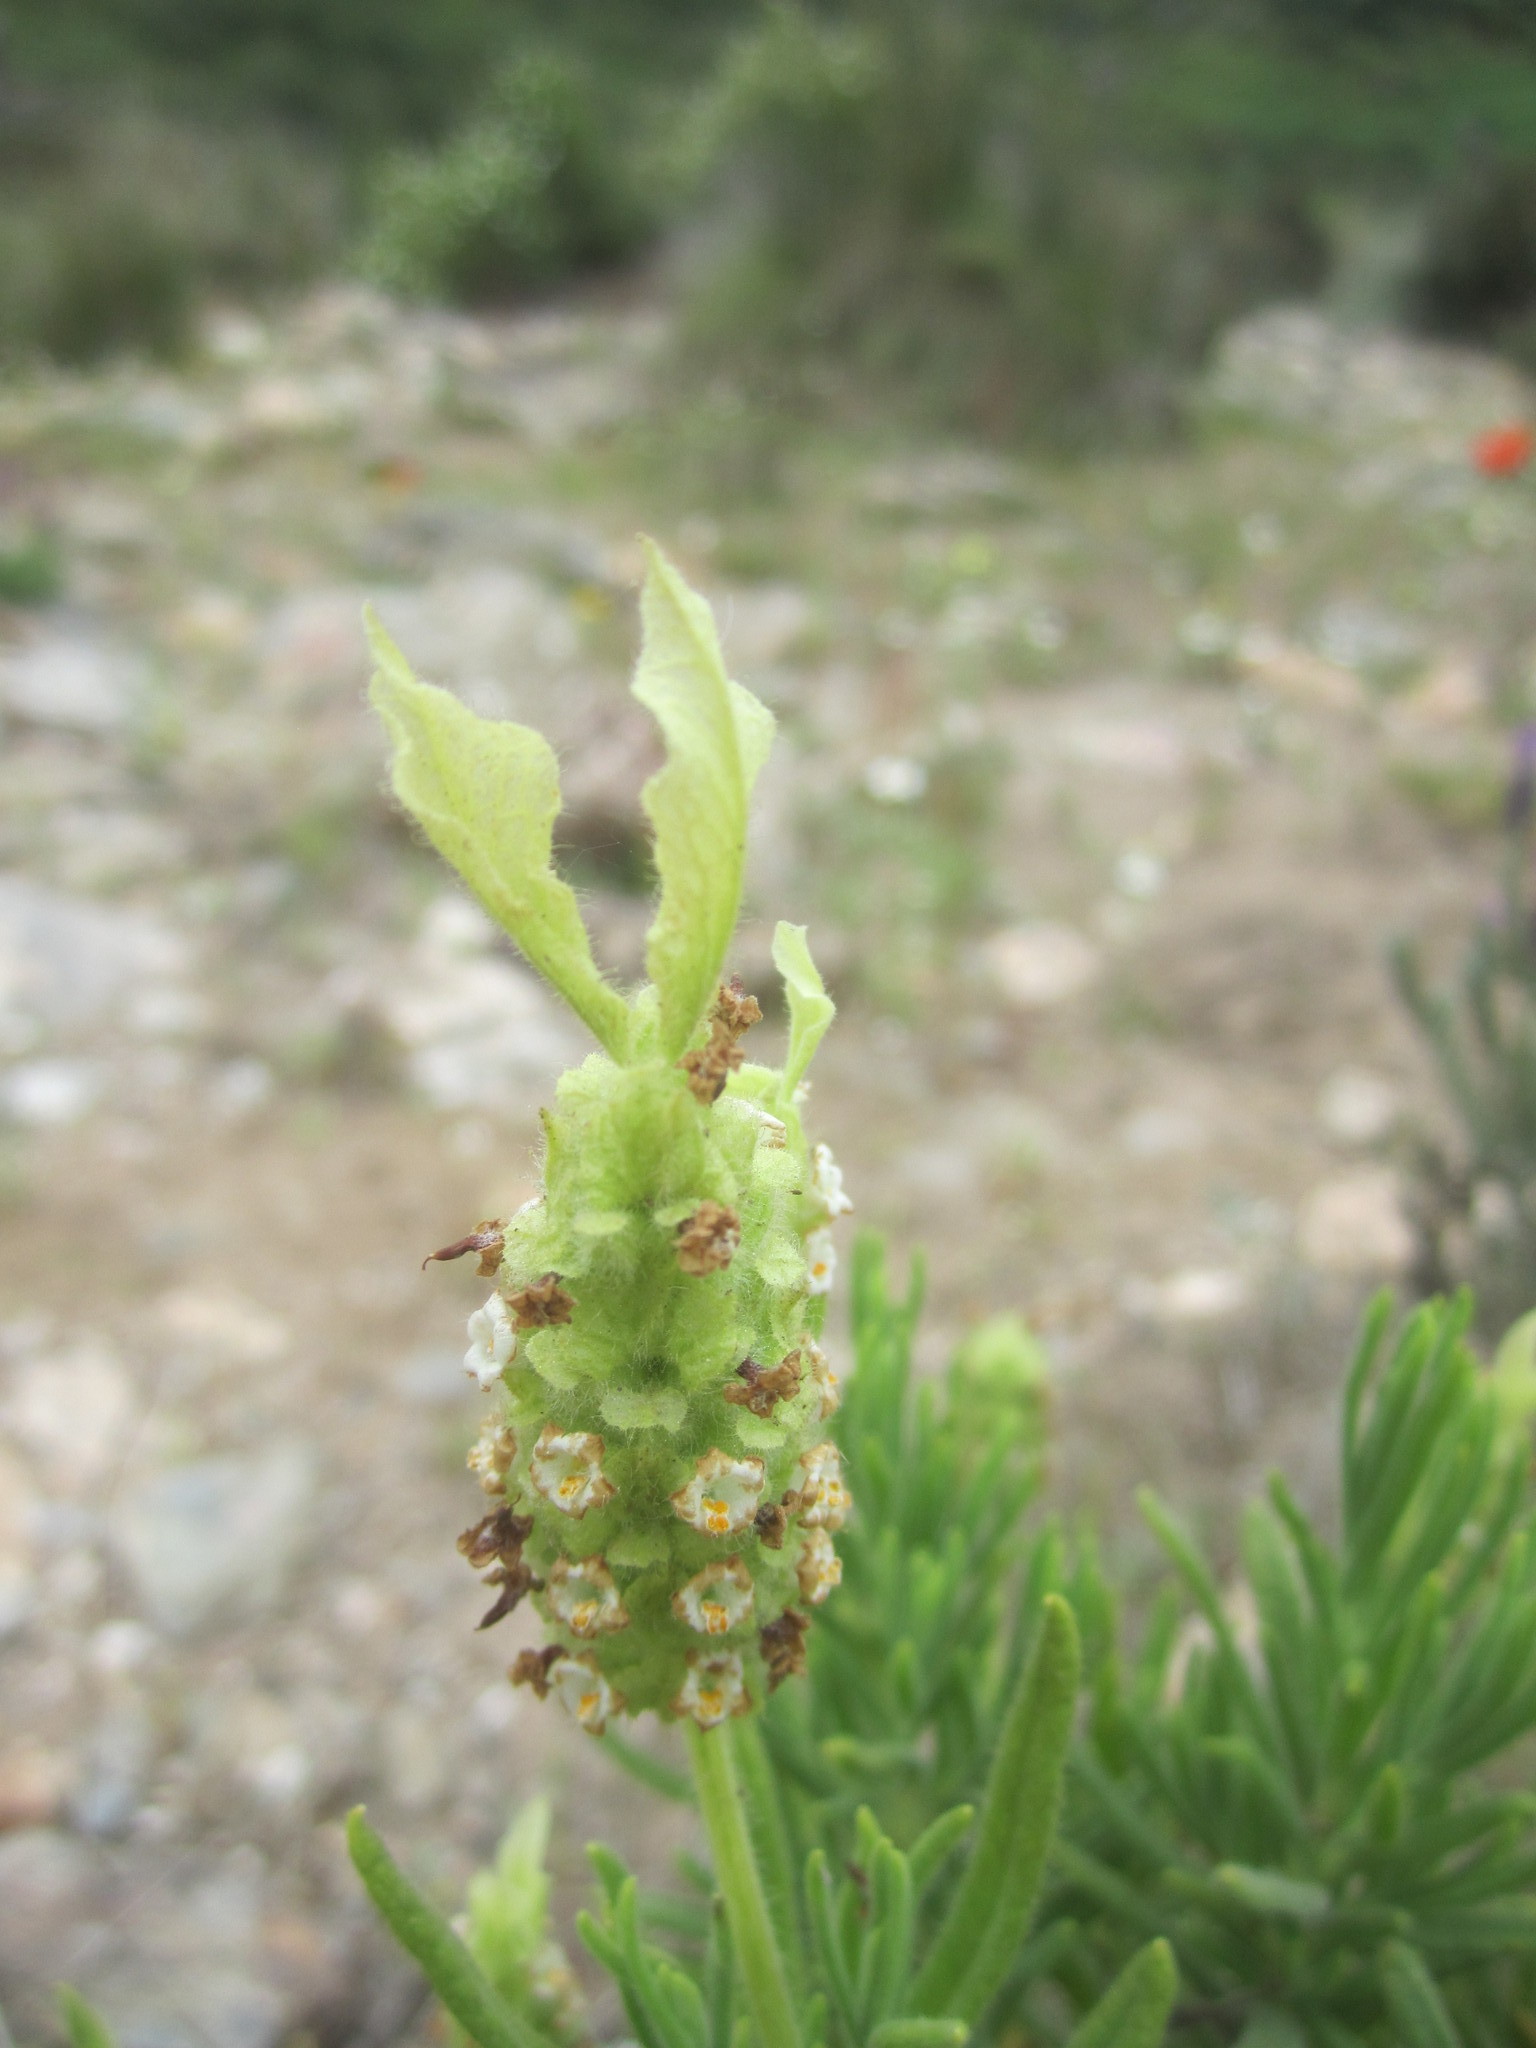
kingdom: Plantae
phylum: Tracheophyta
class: Magnoliopsida
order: Lamiales
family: Lamiaceae
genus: Lavandula
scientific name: Lavandula viridis
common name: Green spanish lavender
